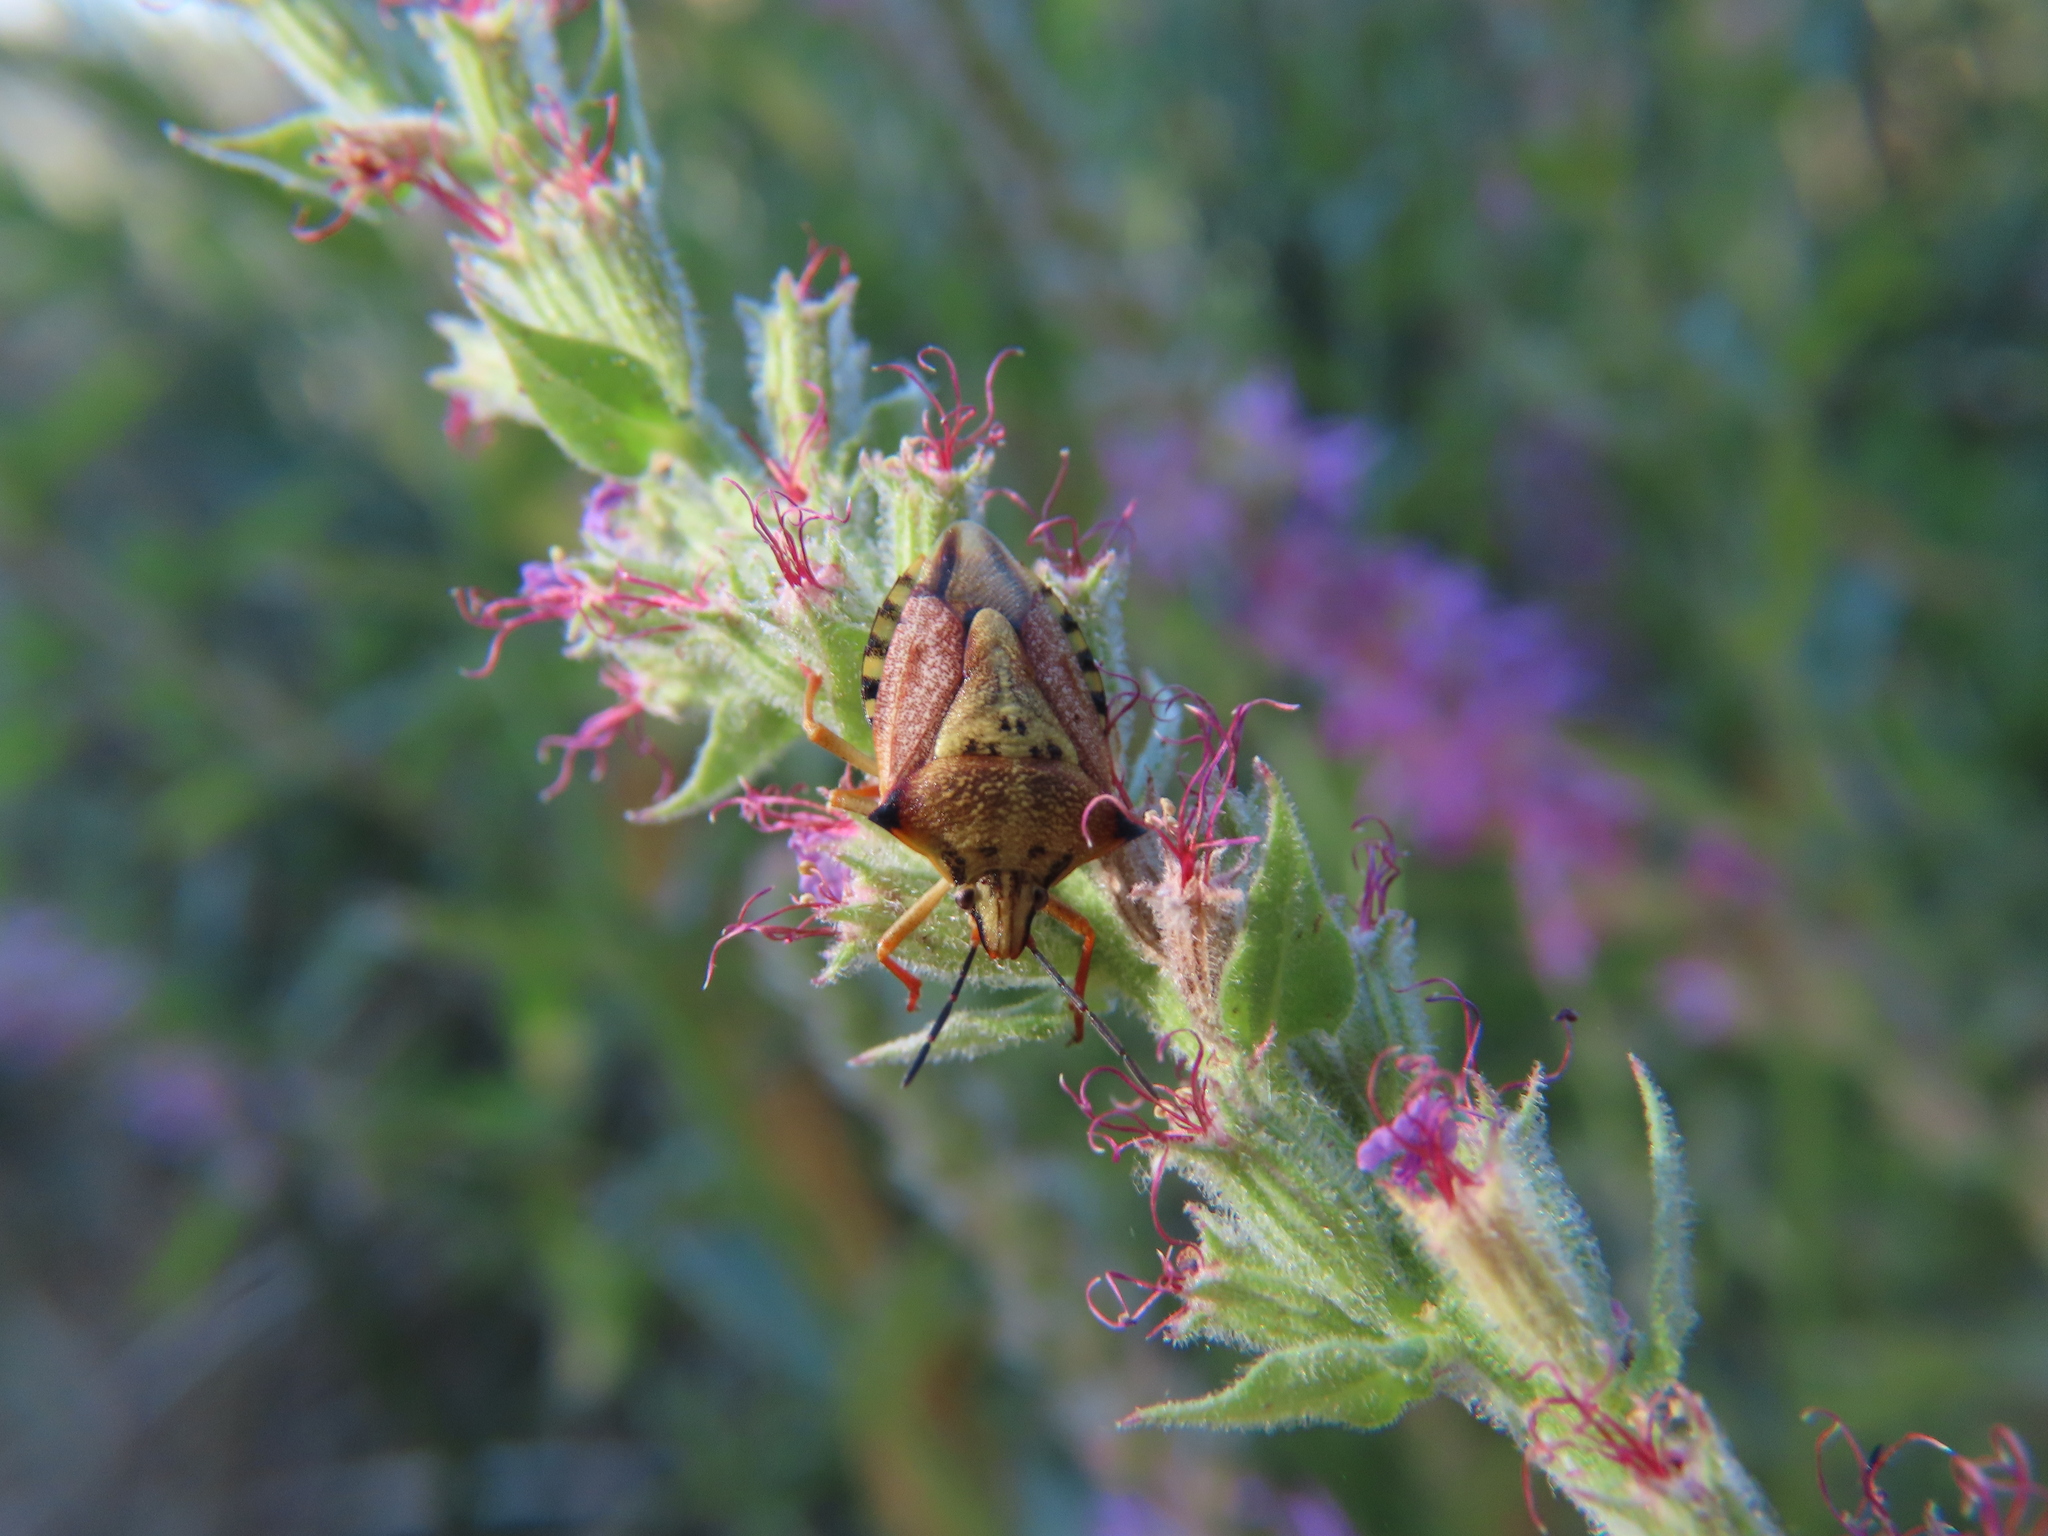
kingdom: Animalia
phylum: Arthropoda
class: Insecta
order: Hemiptera
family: Pentatomidae
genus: Carpocoris
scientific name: Carpocoris mediterraneus
